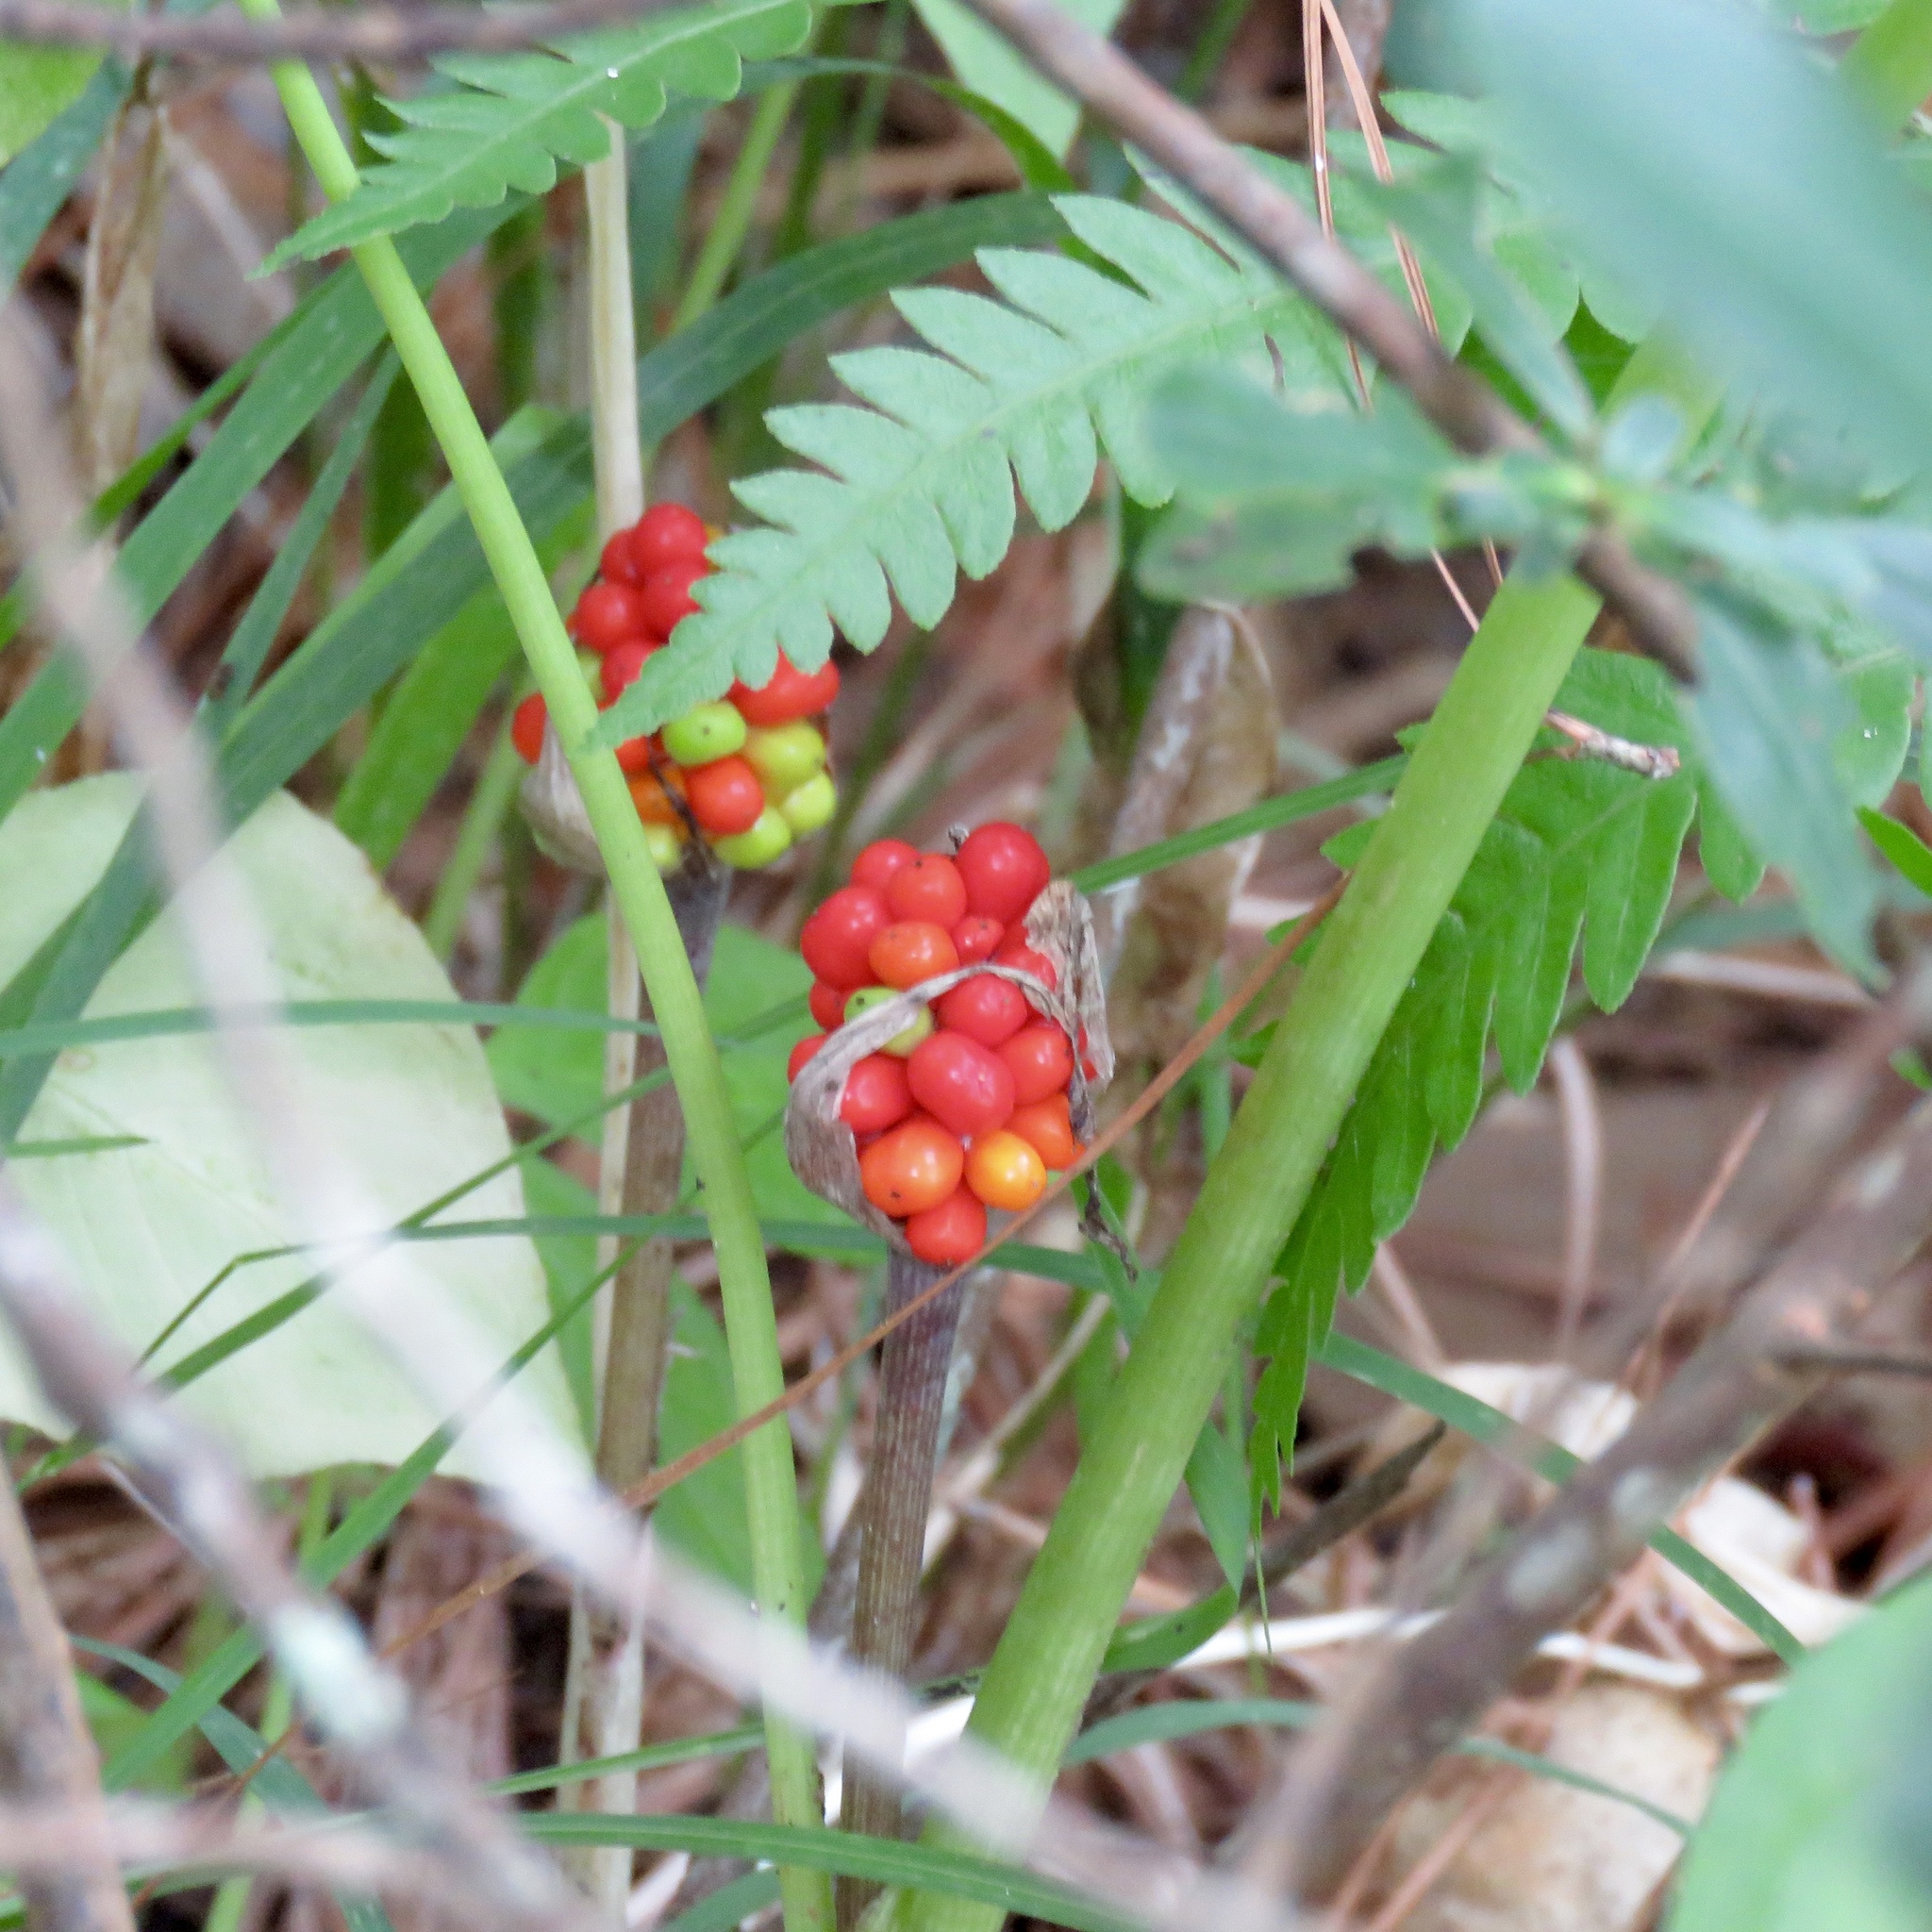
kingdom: Plantae
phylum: Tracheophyta
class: Liliopsida
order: Alismatales
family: Araceae
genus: Arisaema
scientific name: Arisaema triphyllum
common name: Jack-in-the-pulpit
